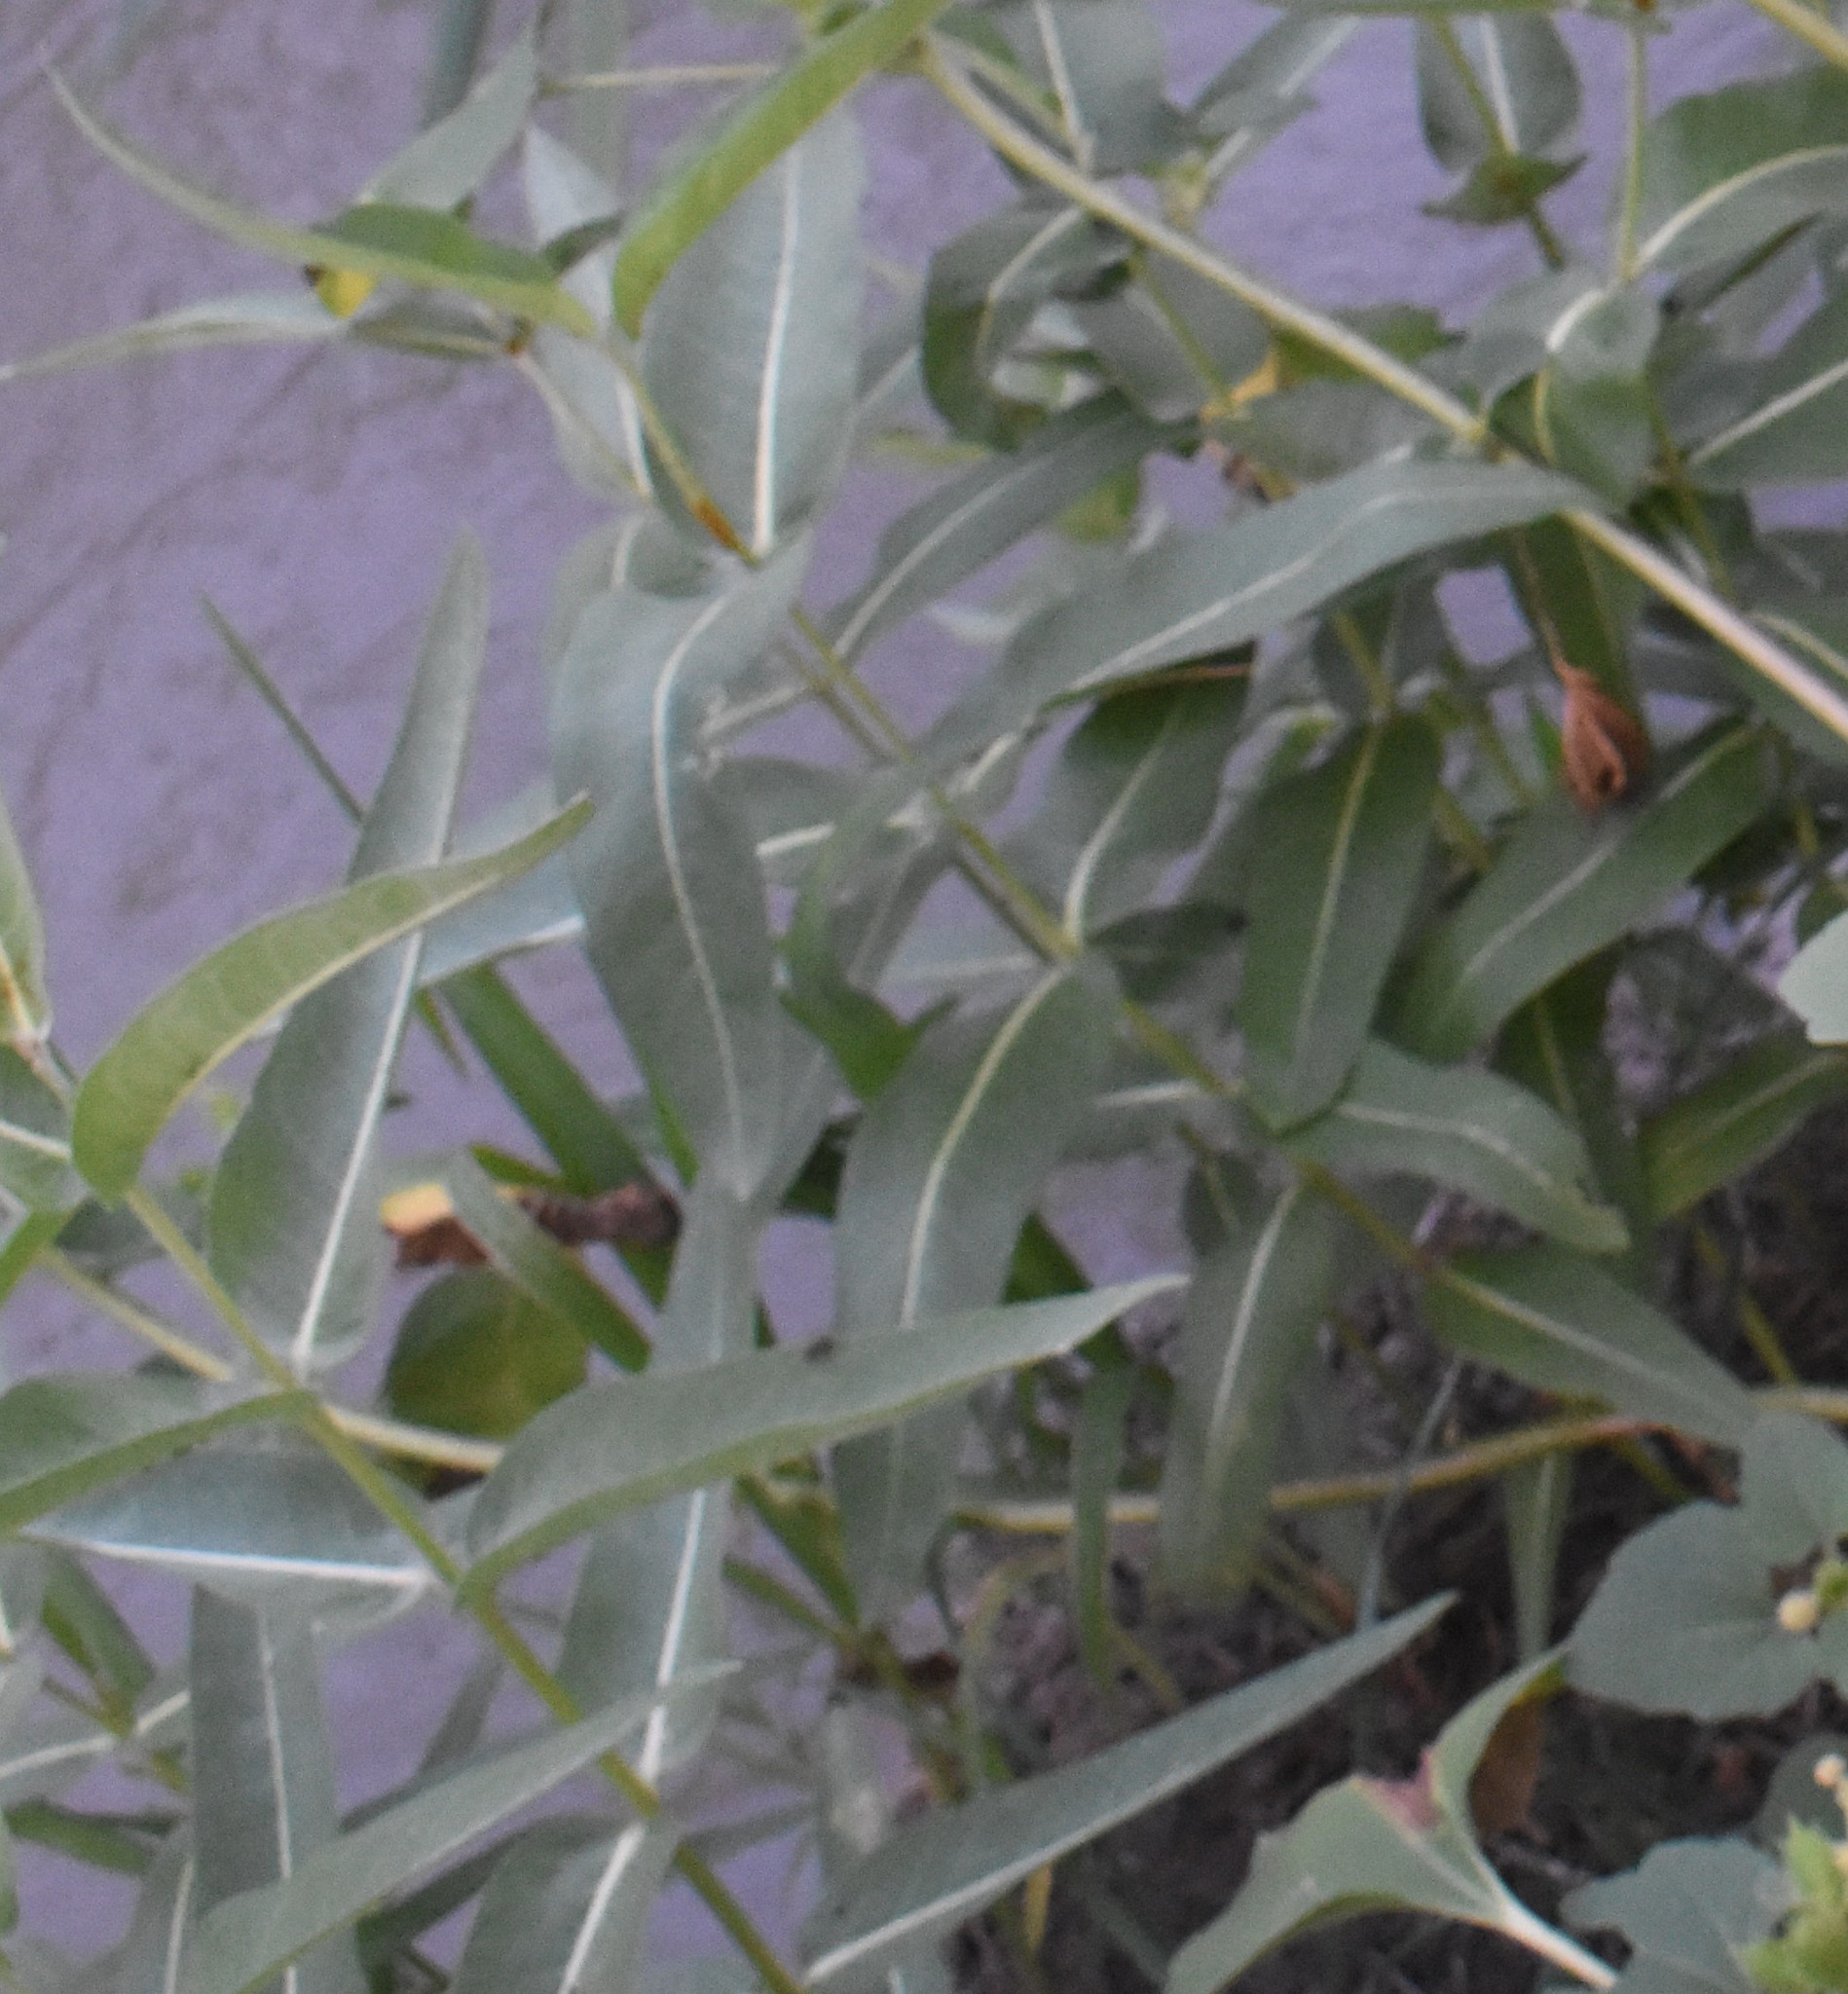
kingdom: Plantae
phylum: Tracheophyta
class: Magnoliopsida
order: Gentianales
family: Apocynaceae
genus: Asclepias
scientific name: Asclepias speciosa
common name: Showy milkweed
